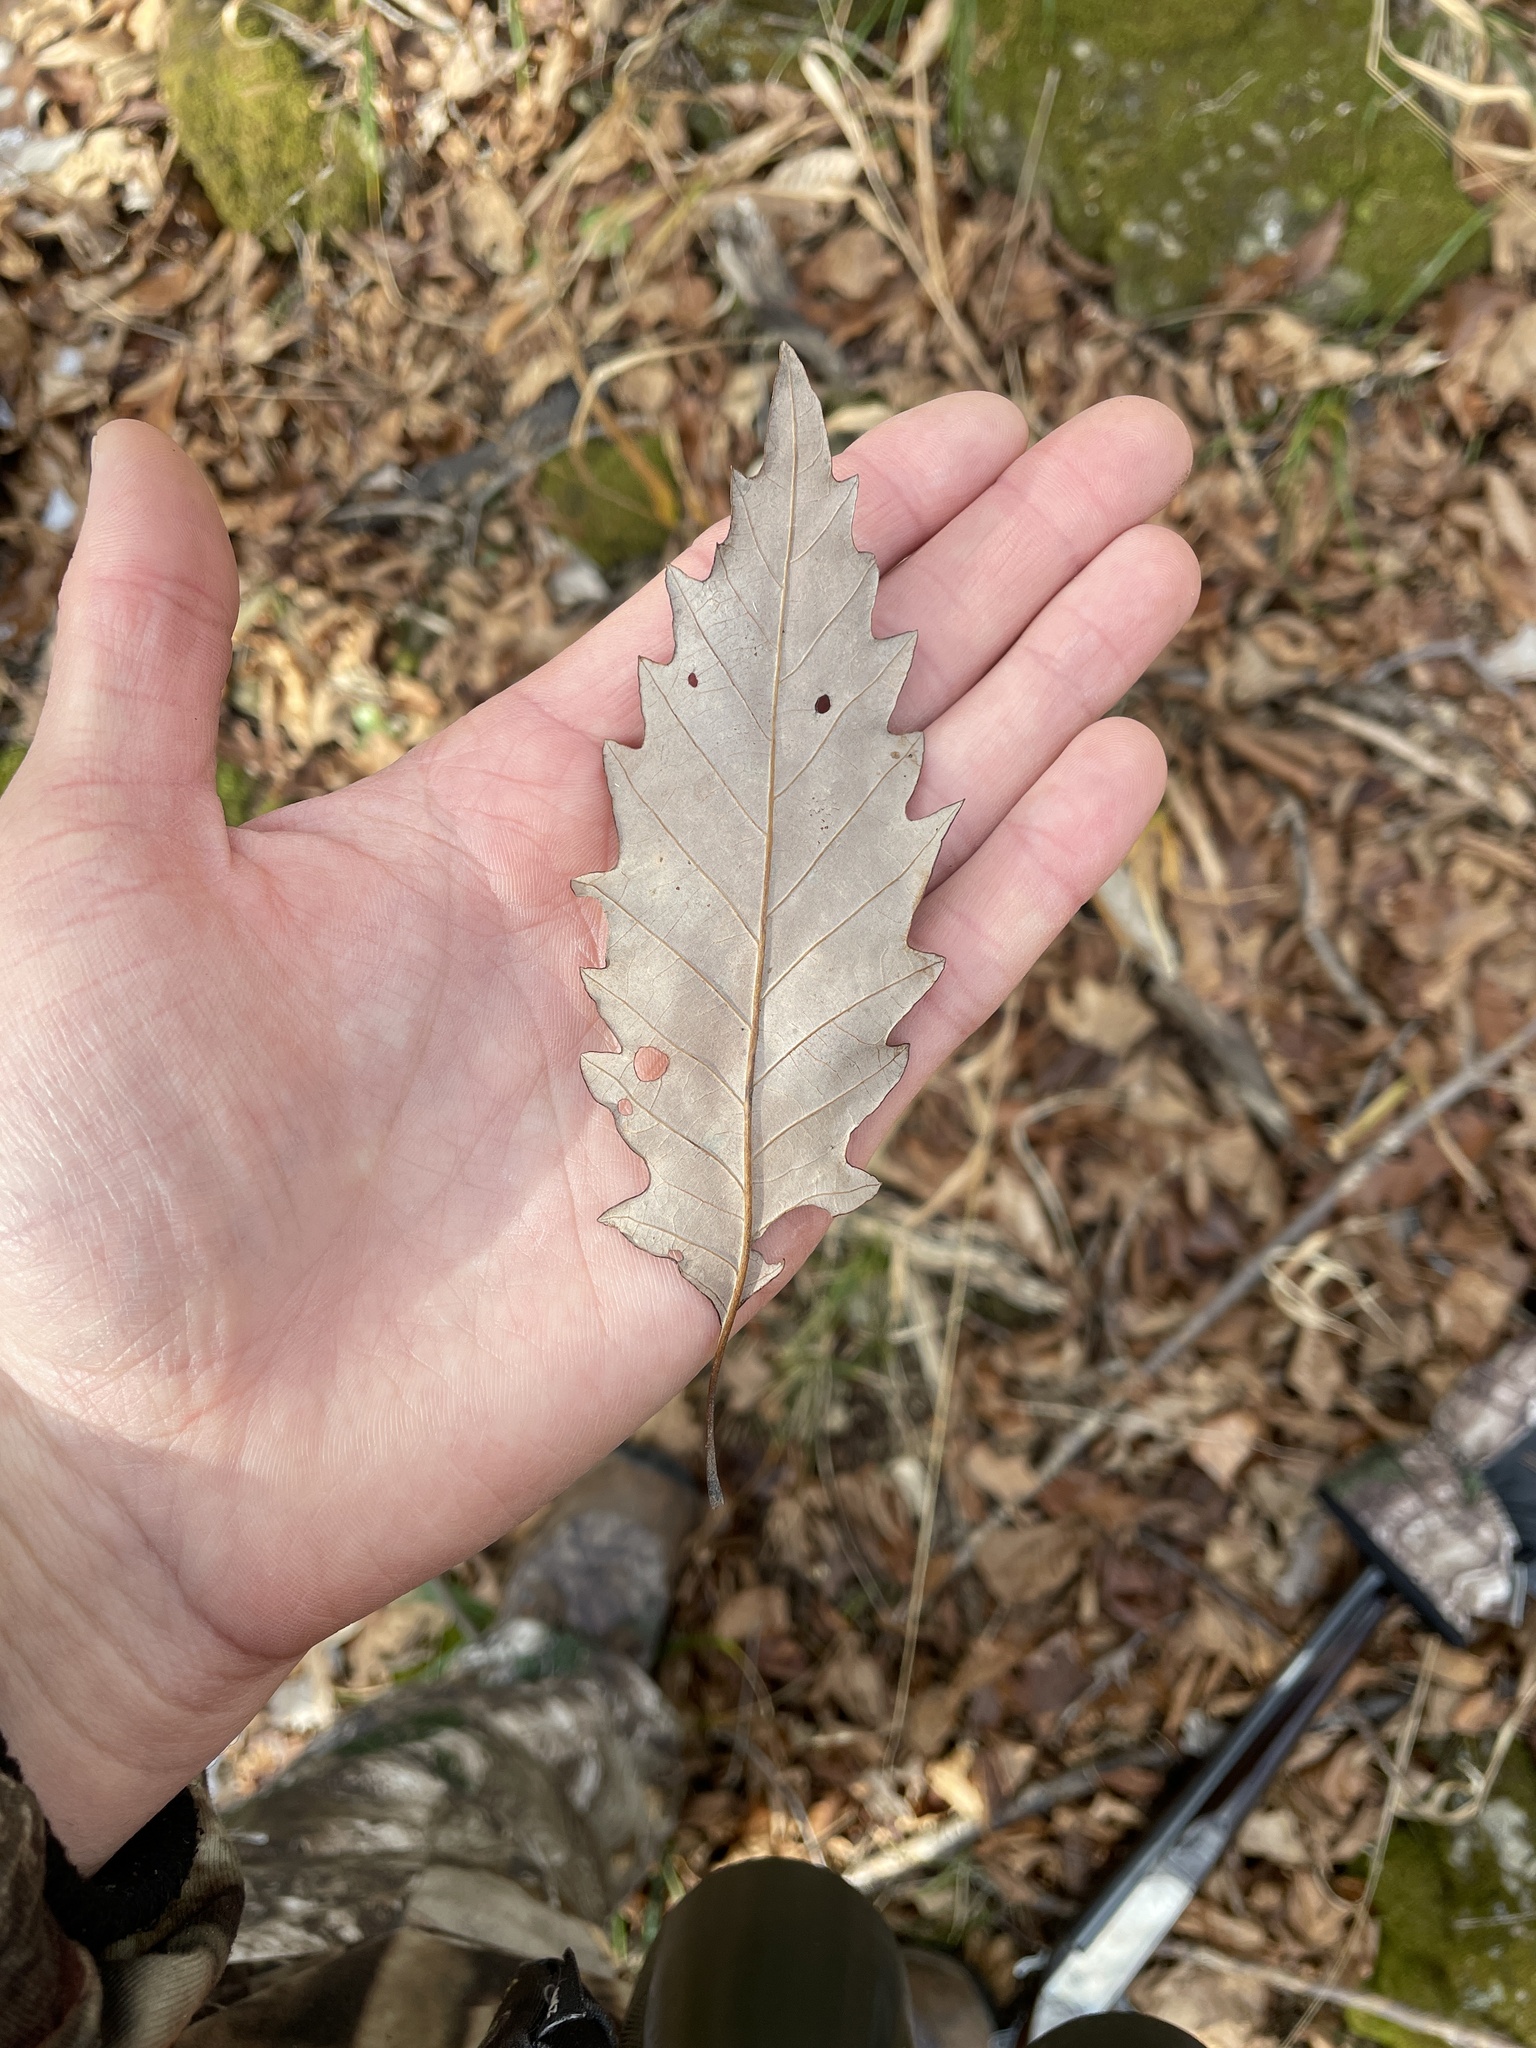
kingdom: Plantae
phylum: Tracheophyta
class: Magnoliopsida
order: Fagales
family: Fagaceae
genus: Quercus
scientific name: Quercus montana
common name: Chestnut oak
